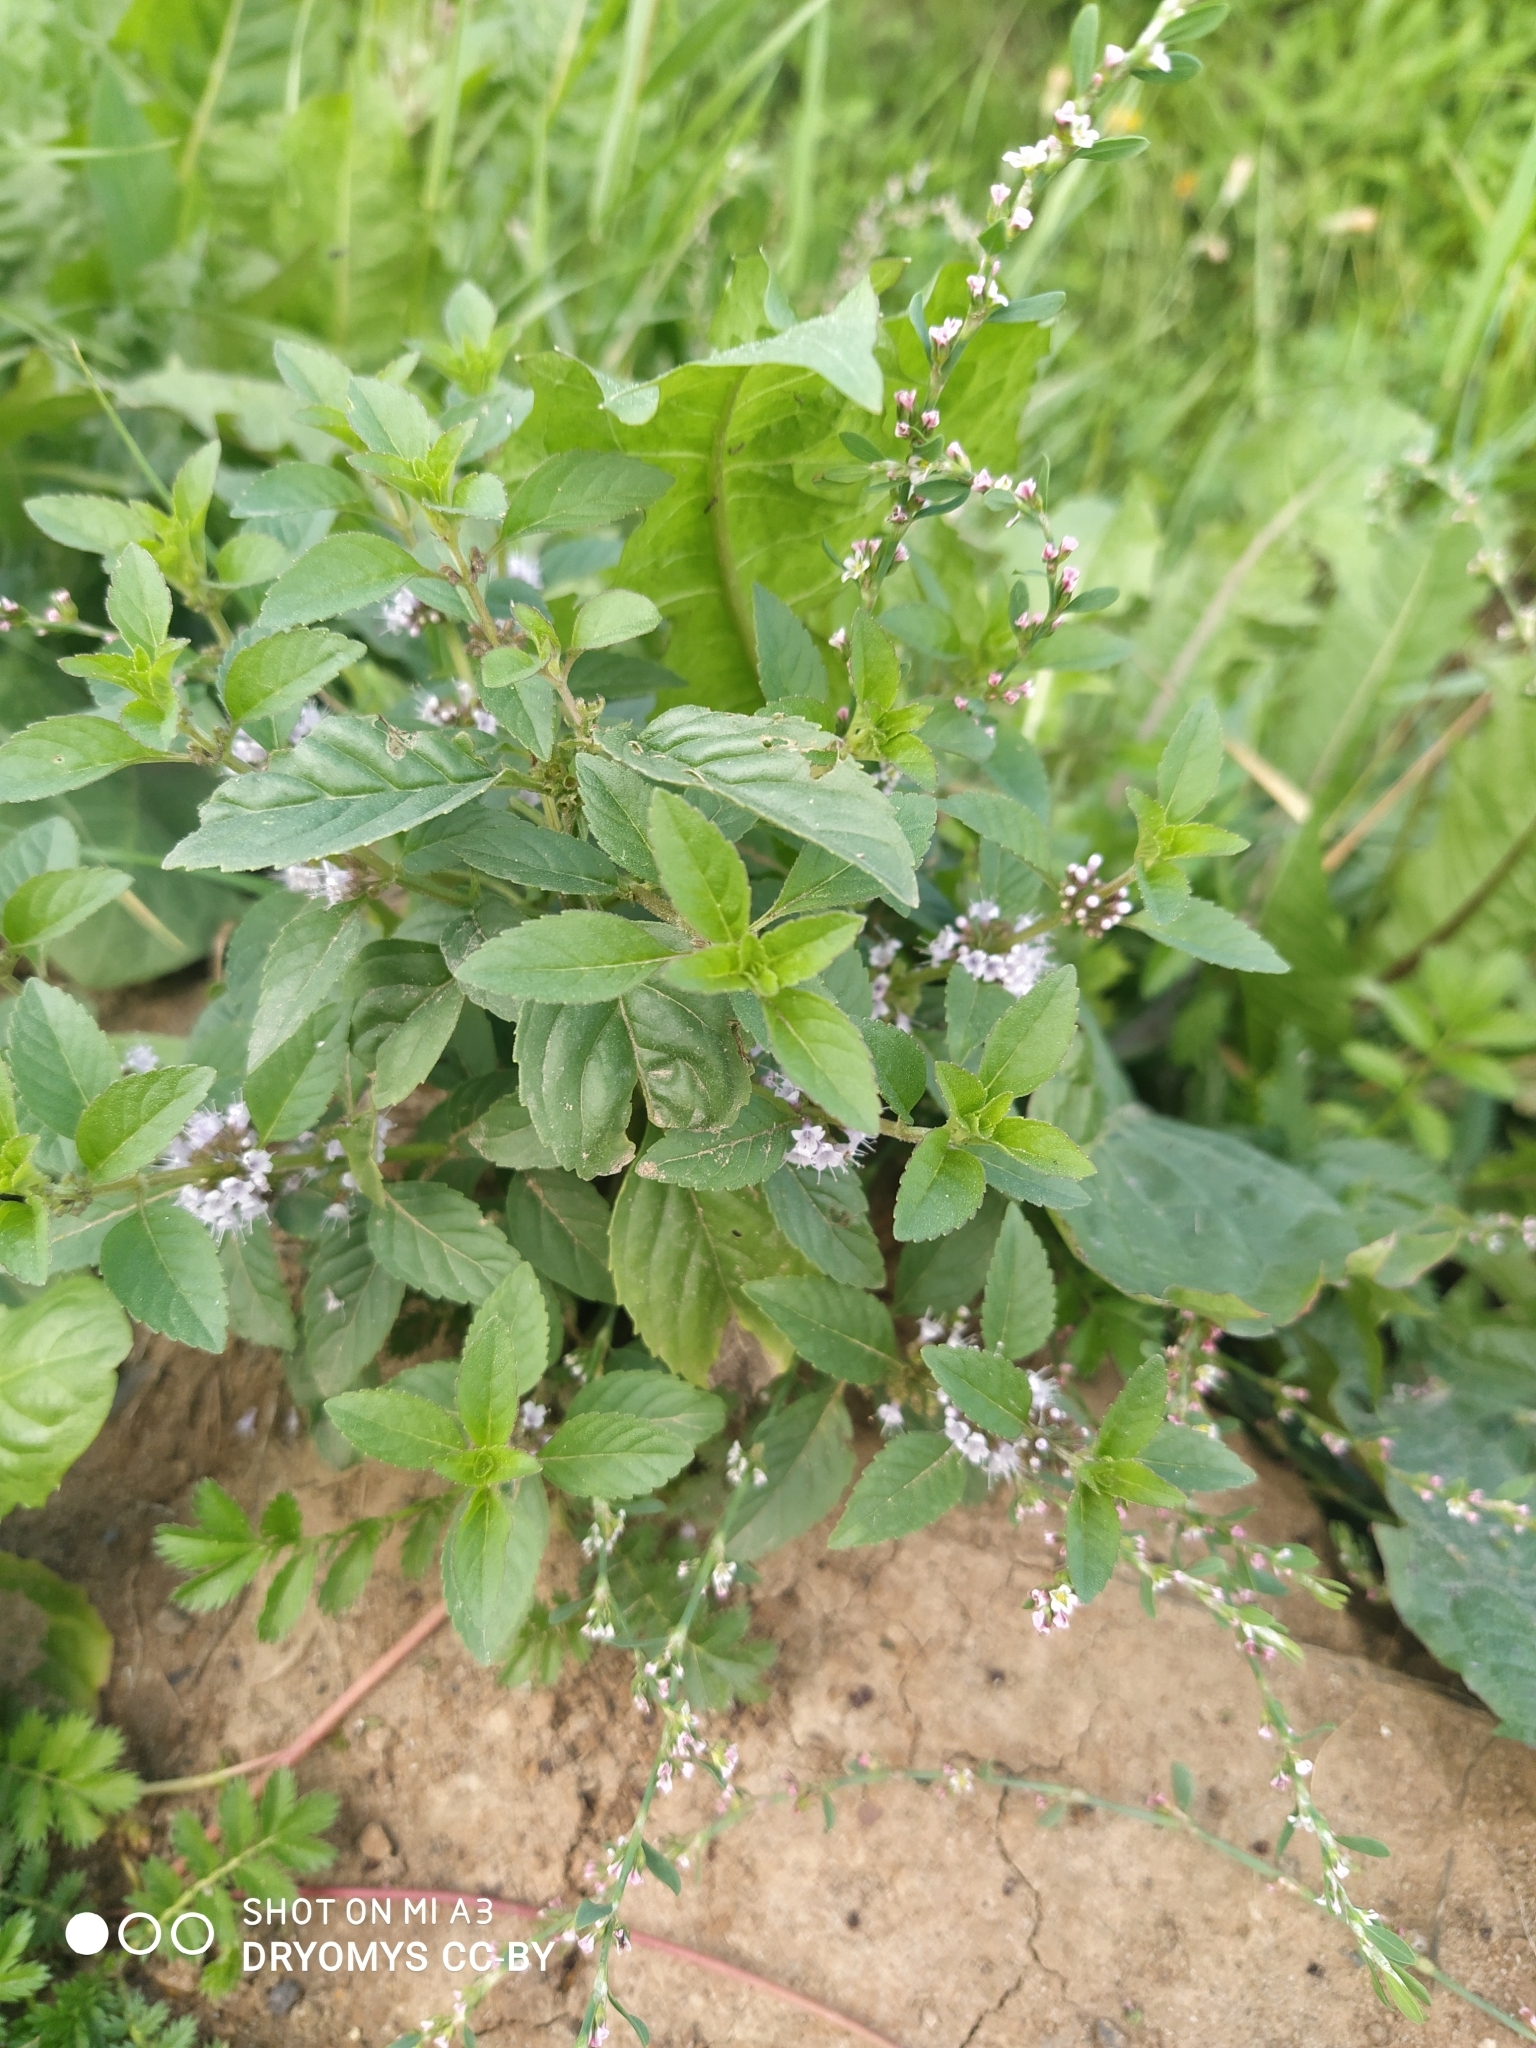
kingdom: Plantae
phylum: Tracheophyta
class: Magnoliopsida
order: Lamiales
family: Lamiaceae
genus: Mentha
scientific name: Mentha arvensis
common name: Corn mint
